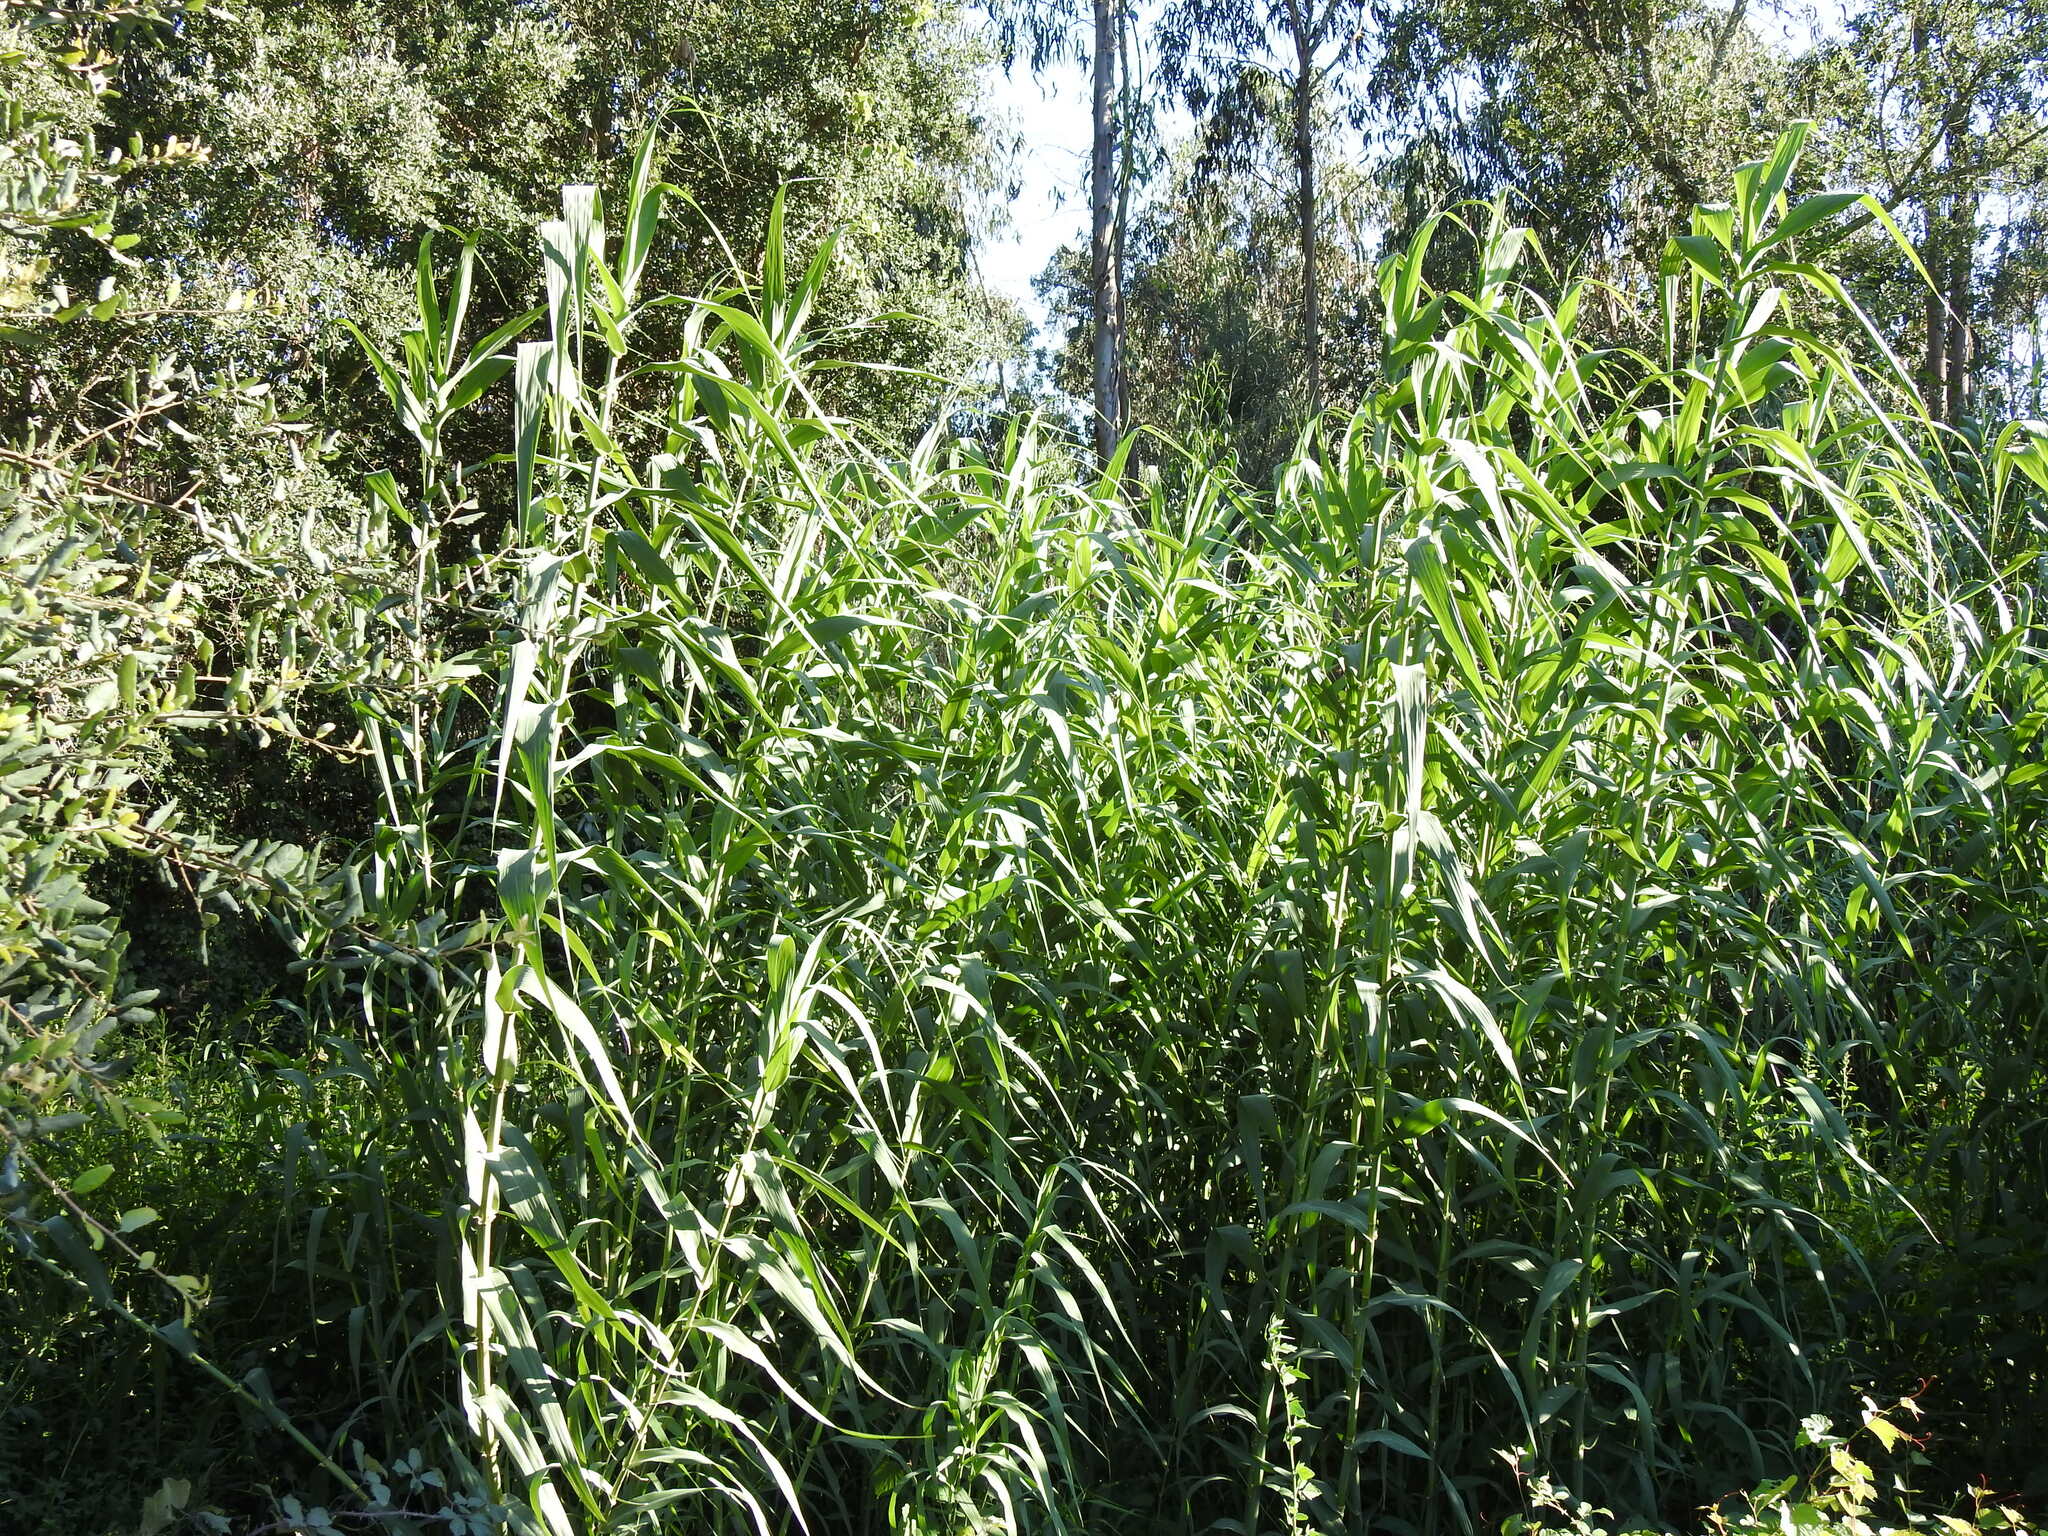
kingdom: Plantae
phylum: Tracheophyta
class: Liliopsida
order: Poales
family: Poaceae
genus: Arundo
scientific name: Arundo donax
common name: Giant reed
